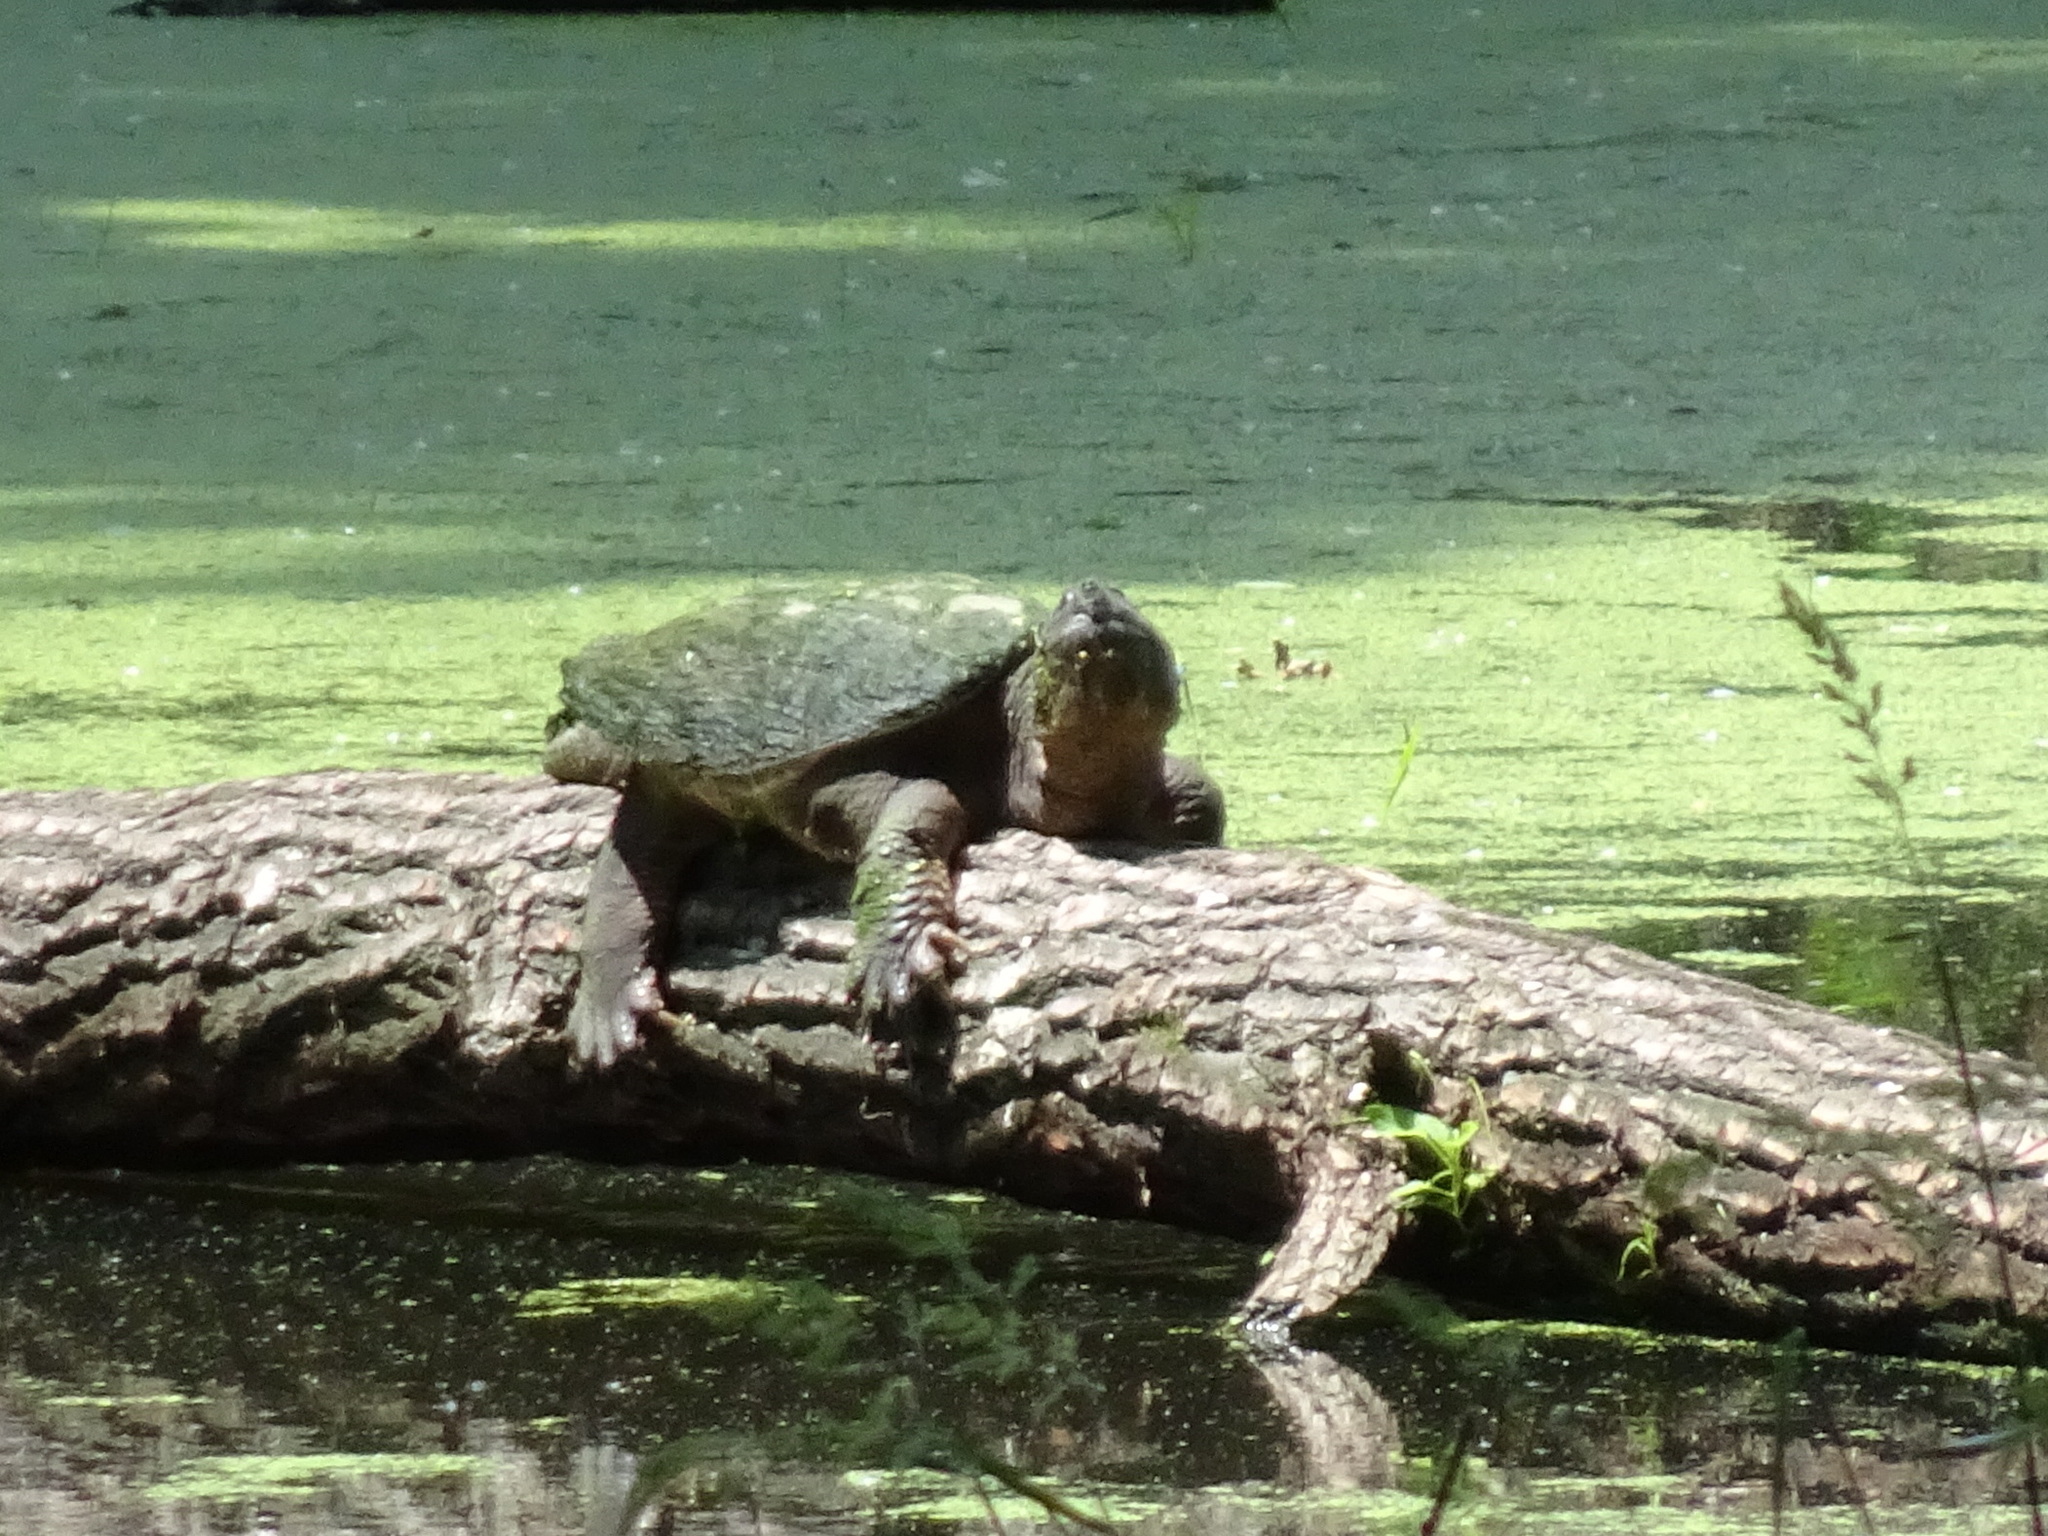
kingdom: Animalia
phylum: Chordata
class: Testudines
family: Chelydridae
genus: Chelydra
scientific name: Chelydra serpentina
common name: Common snapping turtle
